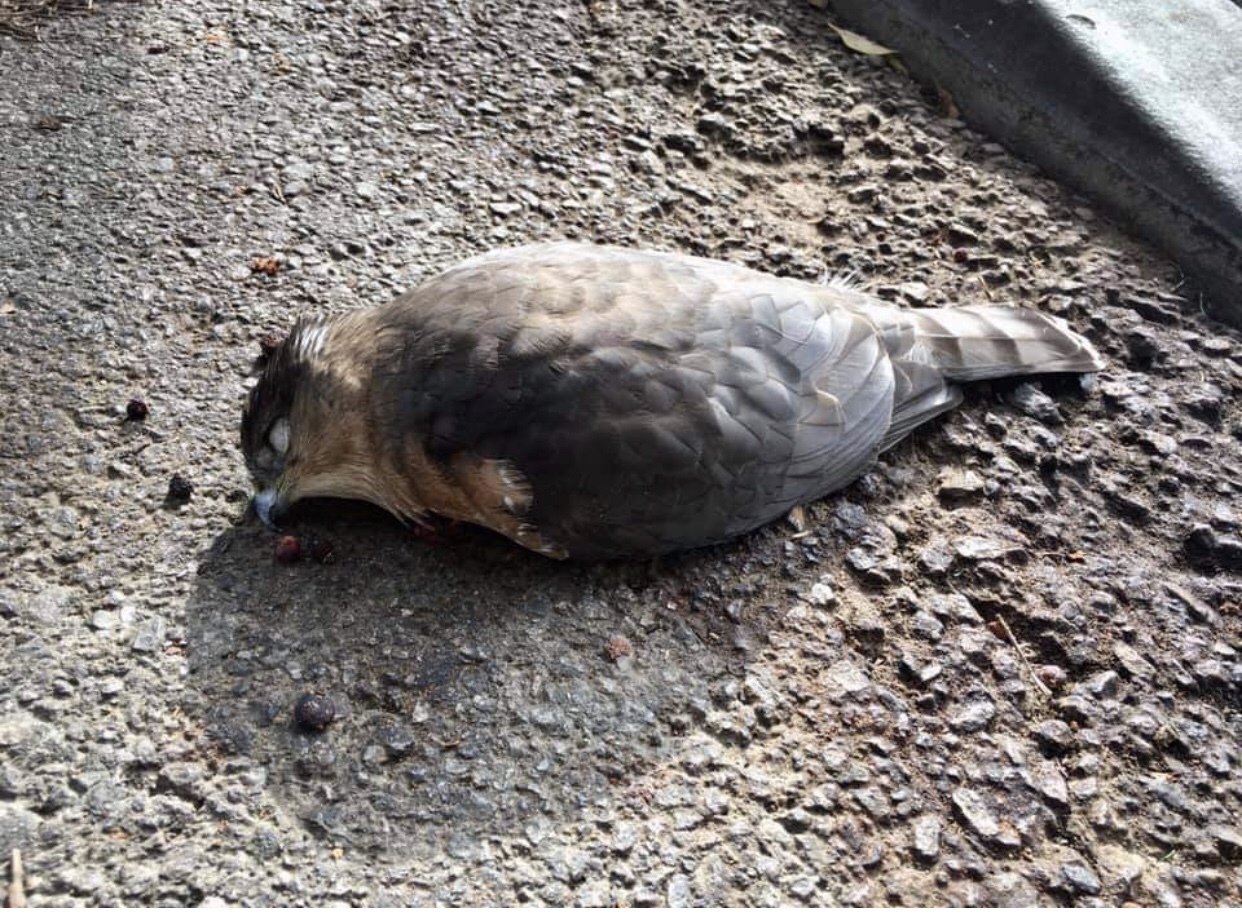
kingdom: Animalia
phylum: Chordata
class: Aves
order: Accipitriformes
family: Accipitridae
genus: Accipiter
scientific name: Accipiter cooperii
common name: Cooper's hawk
